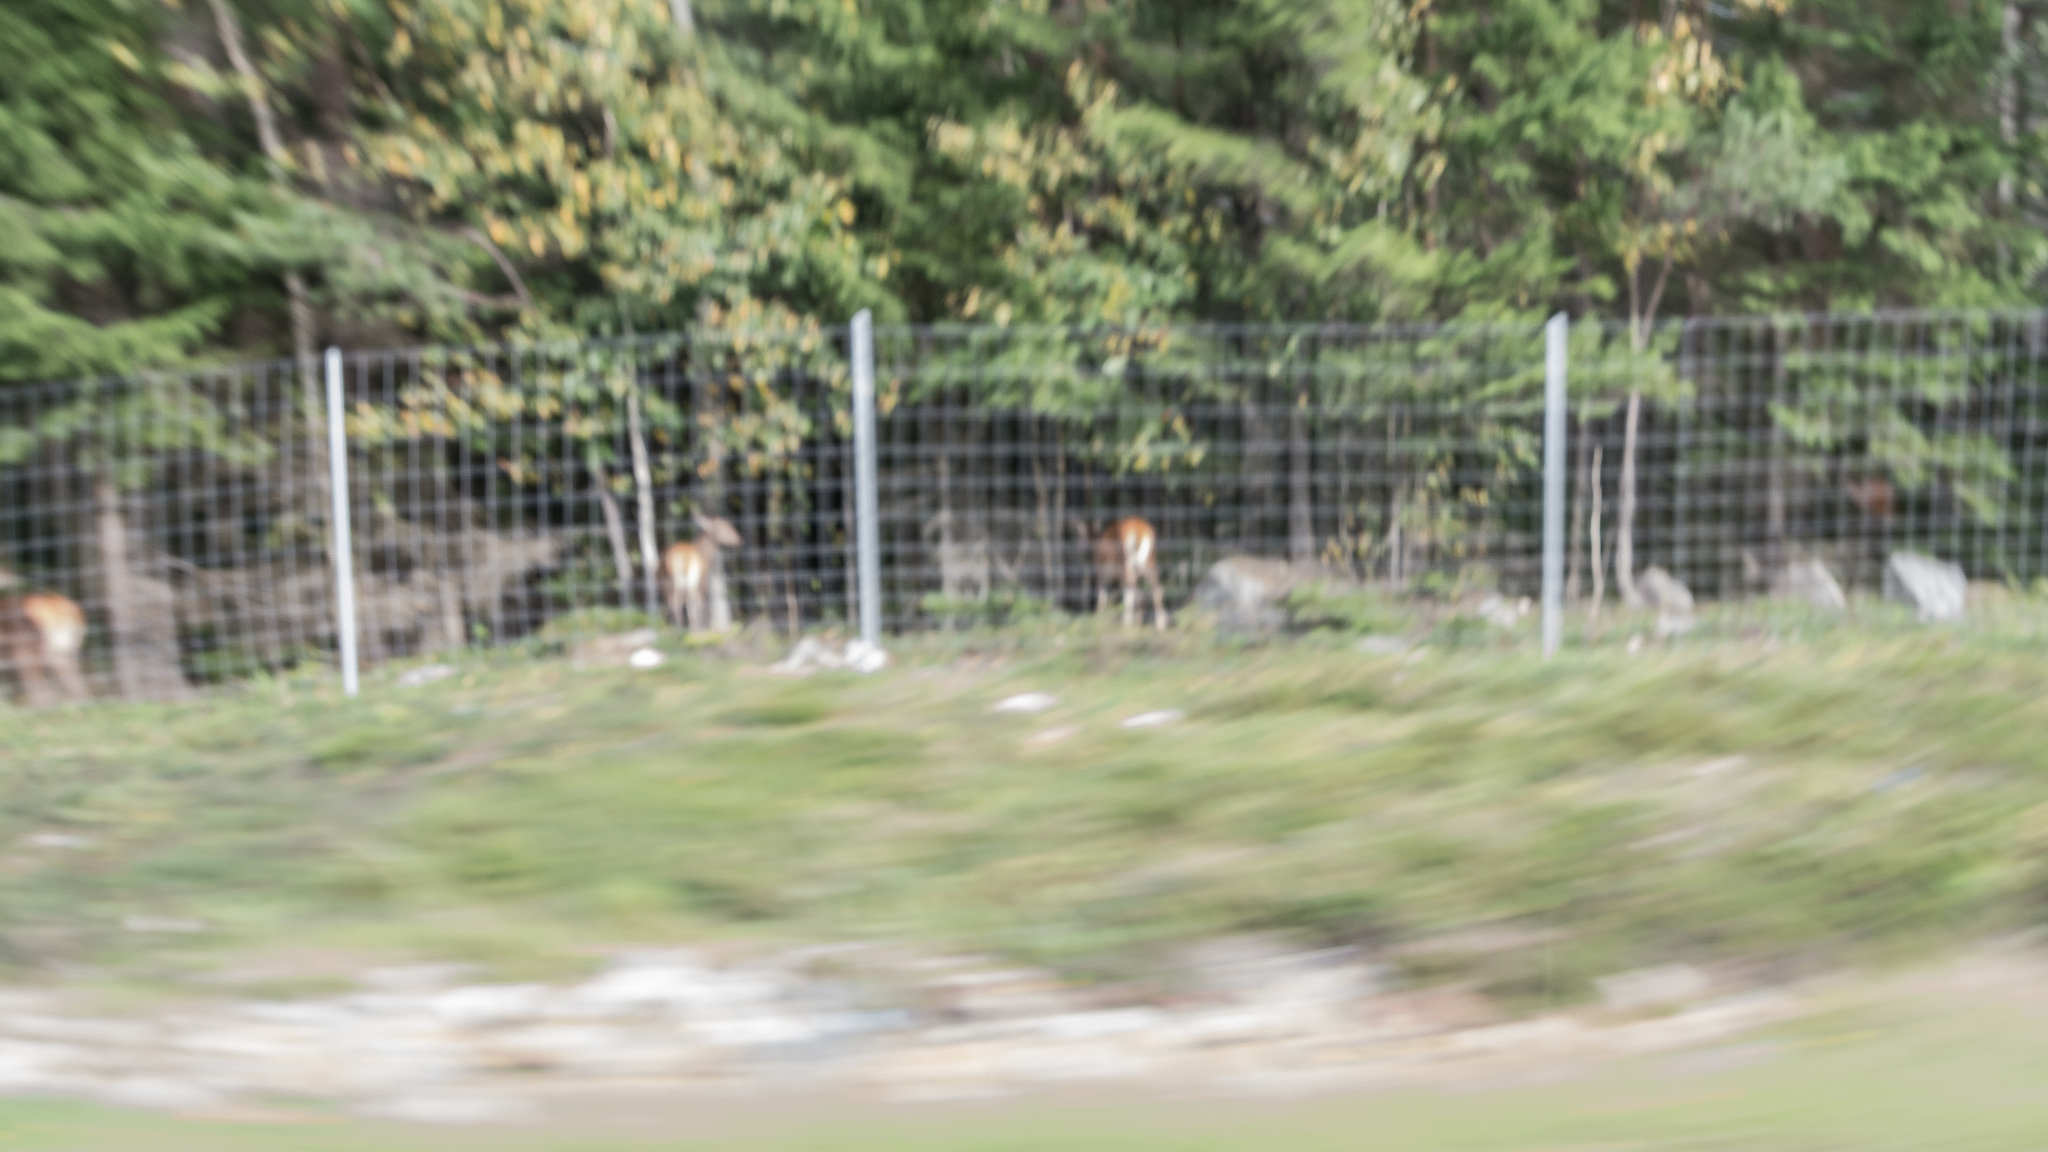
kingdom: Animalia
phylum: Chordata
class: Mammalia
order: Artiodactyla
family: Cervidae
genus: Cervus
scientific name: Cervus elaphus
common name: Red deer
